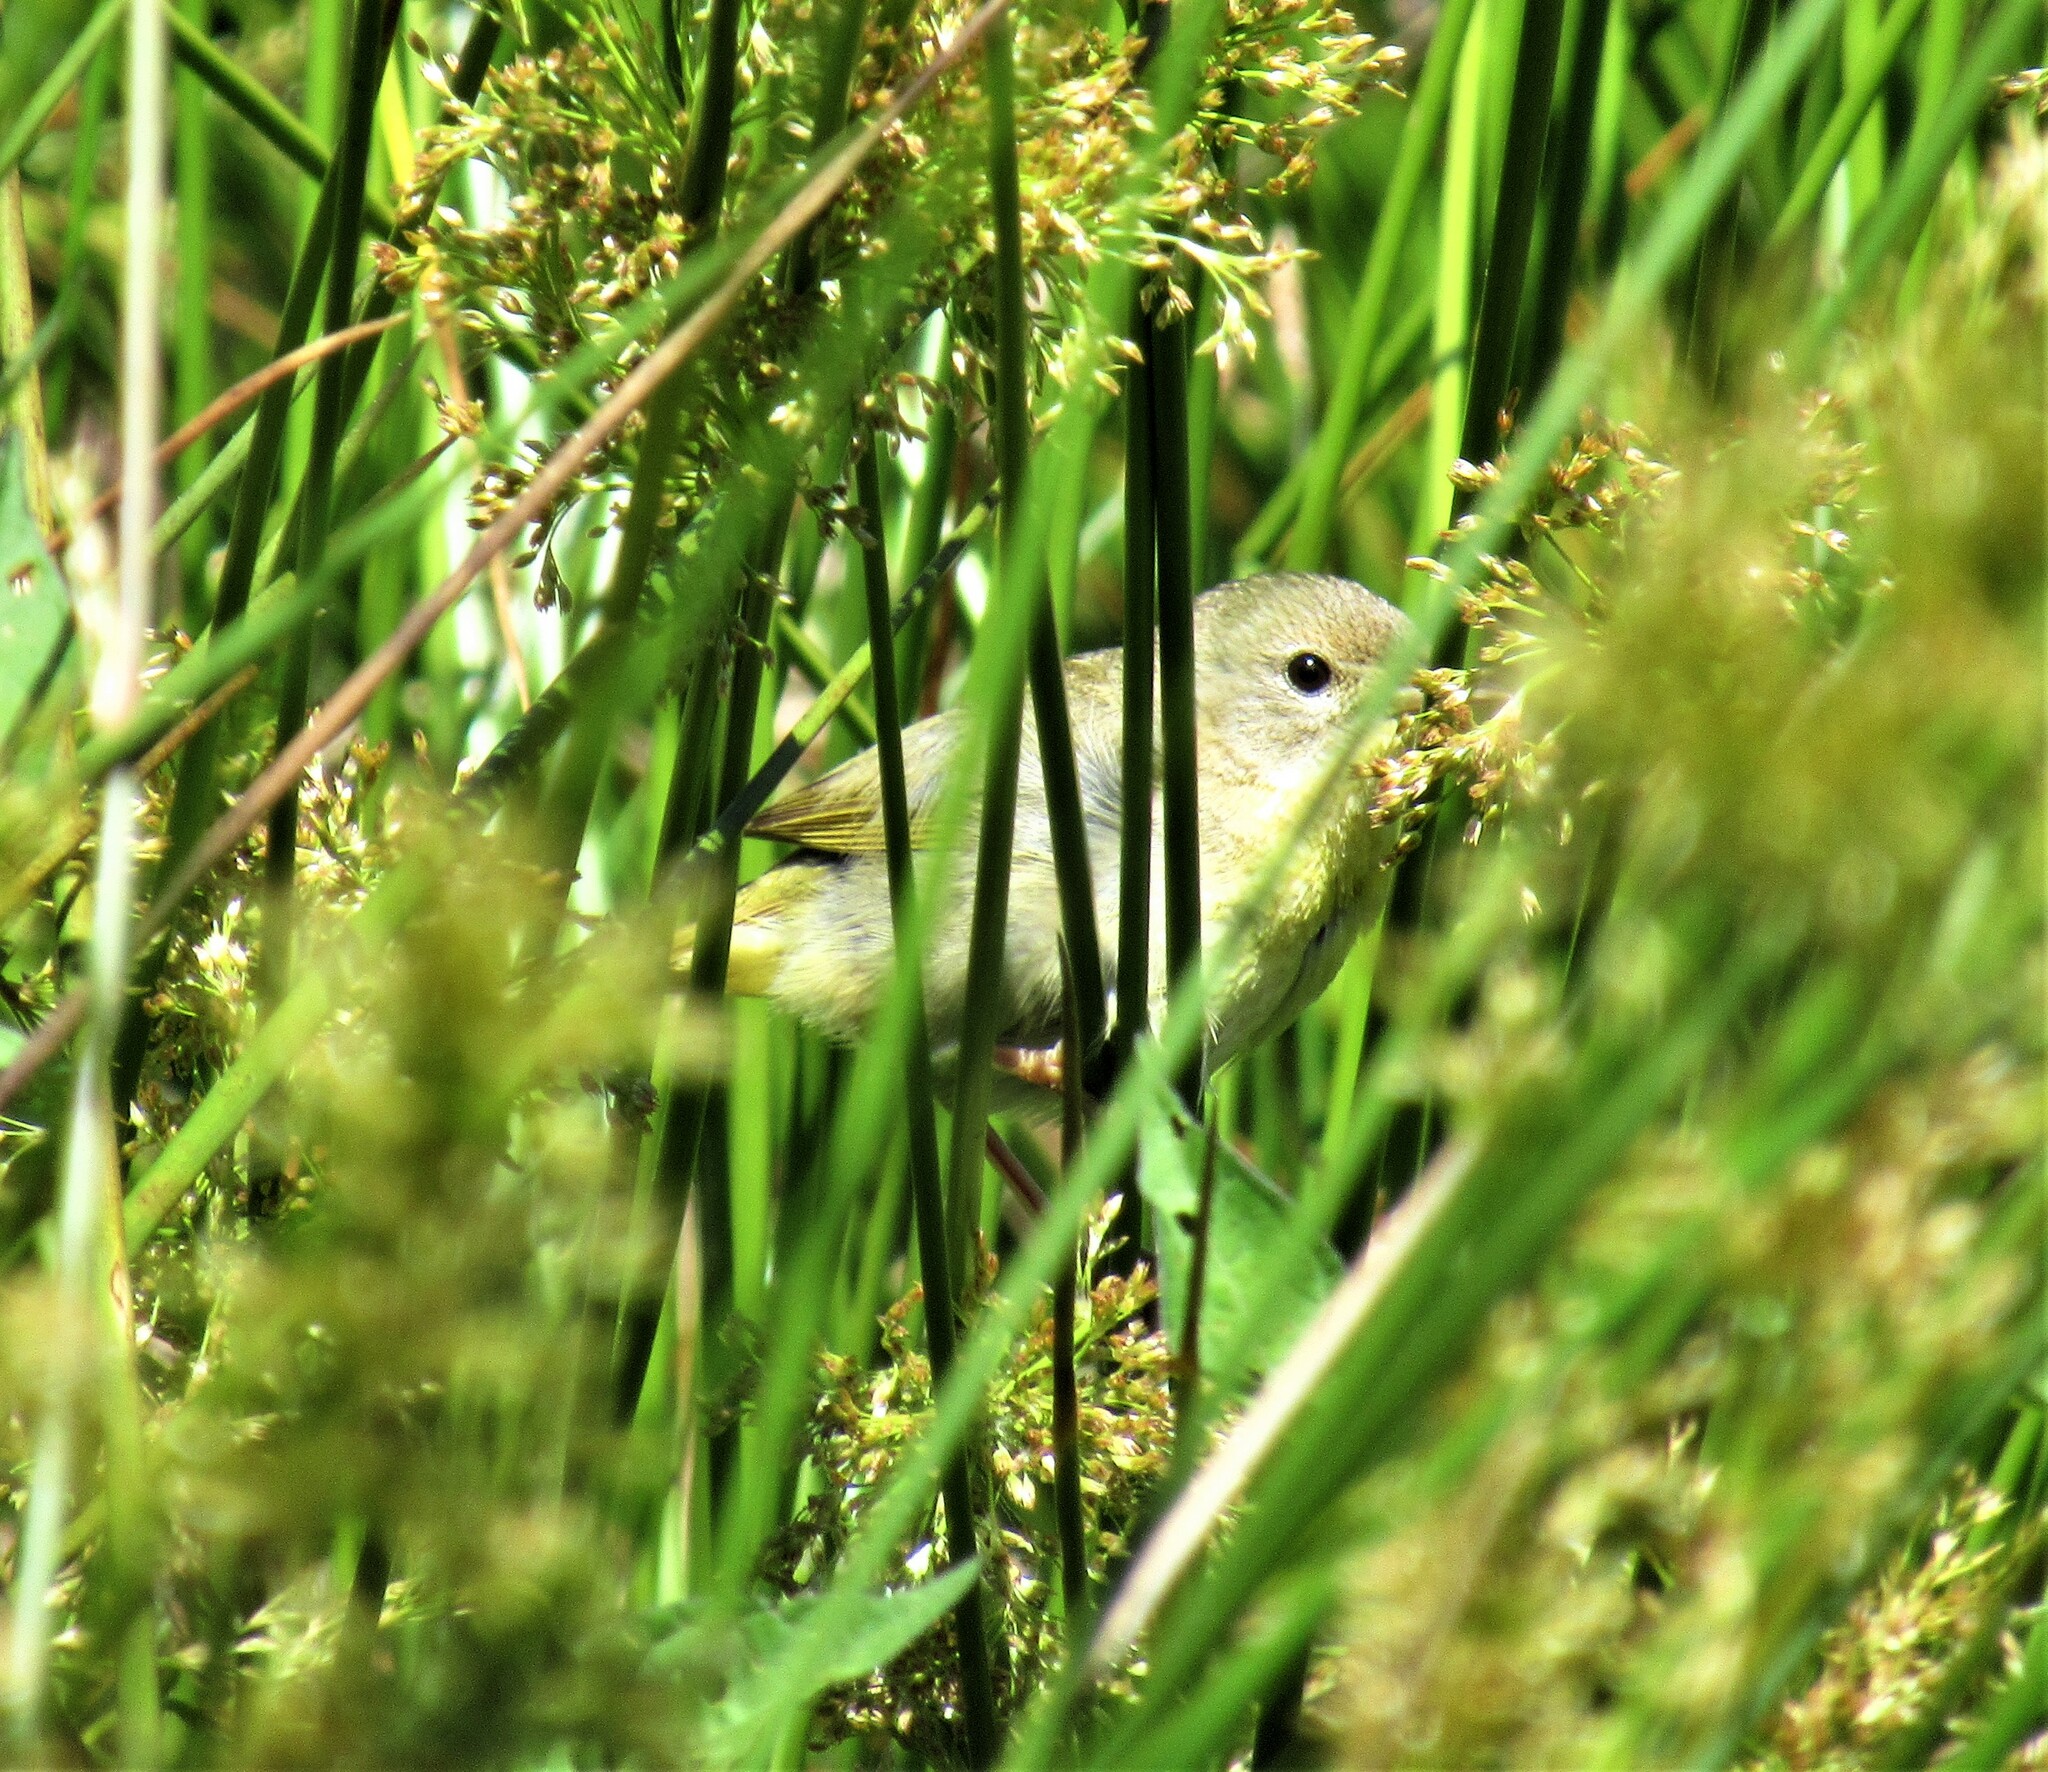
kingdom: Animalia
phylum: Chordata
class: Aves
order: Passeriformes
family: Parulidae
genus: Geothlypis
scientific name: Geothlypis trichas
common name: Common yellowthroat
